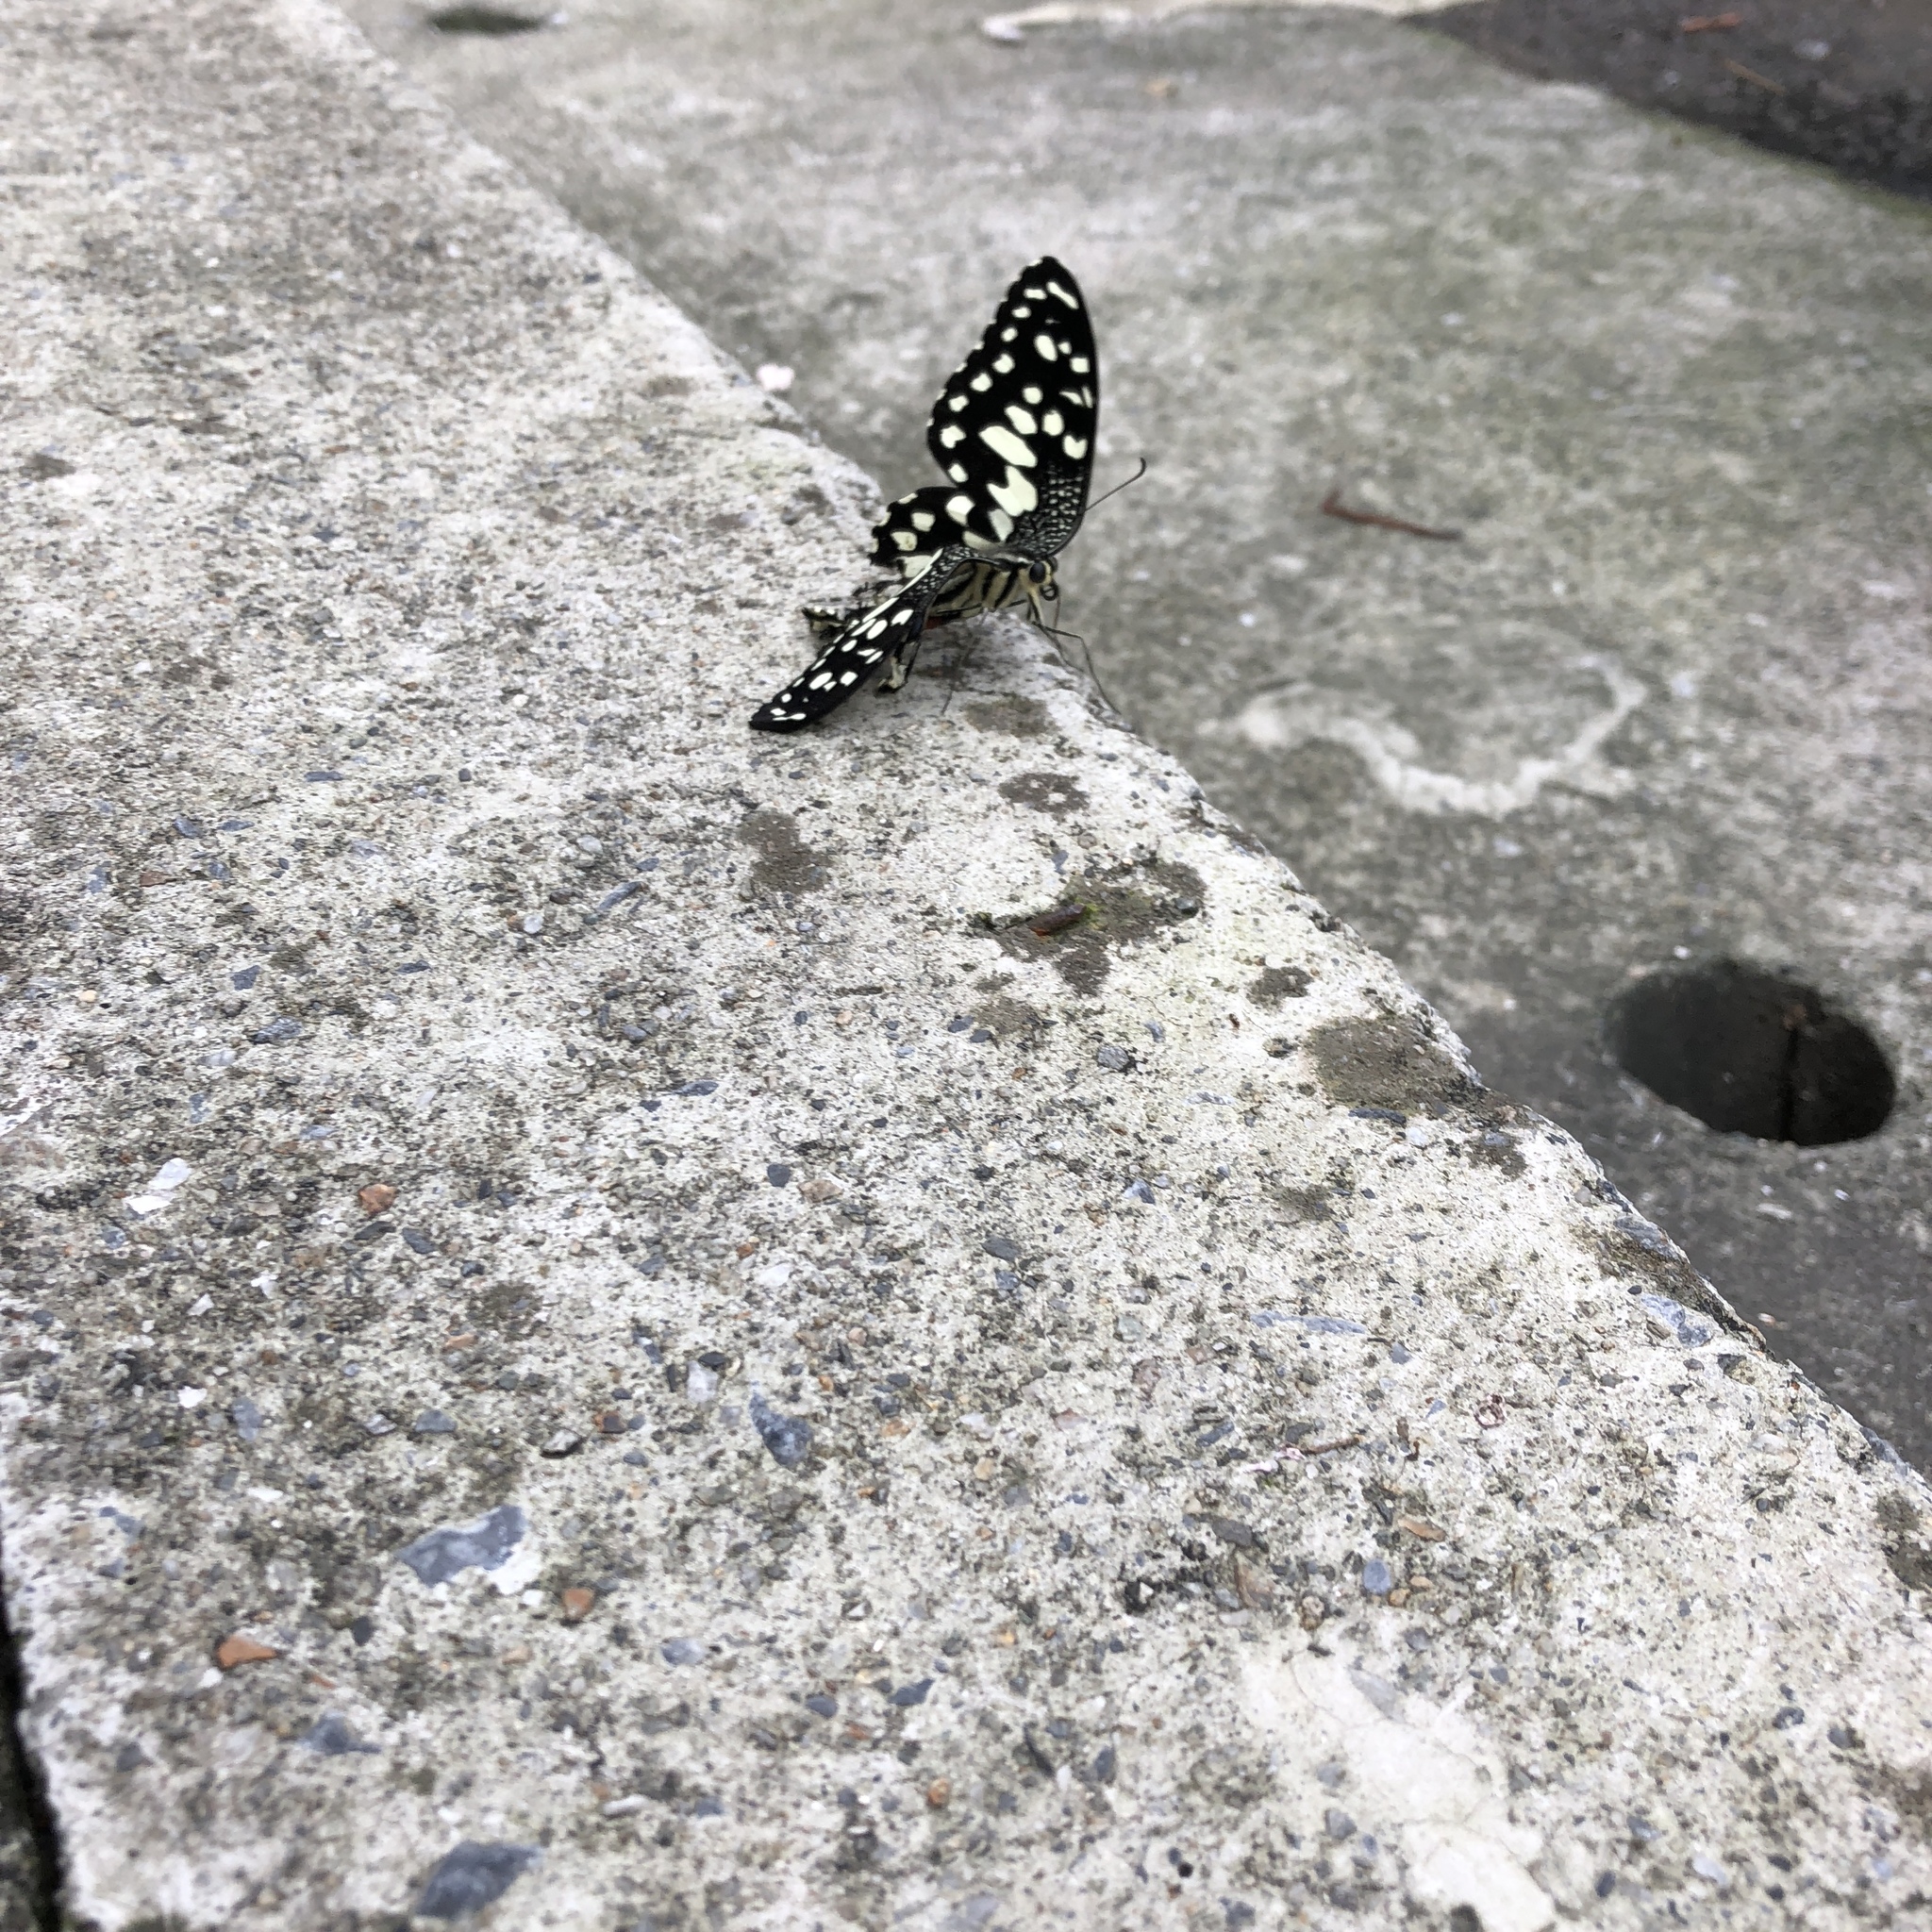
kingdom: Animalia
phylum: Arthropoda
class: Insecta
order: Lepidoptera
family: Papilionidae
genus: Papilio
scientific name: Papilio demoleus
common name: Lime butterfly
